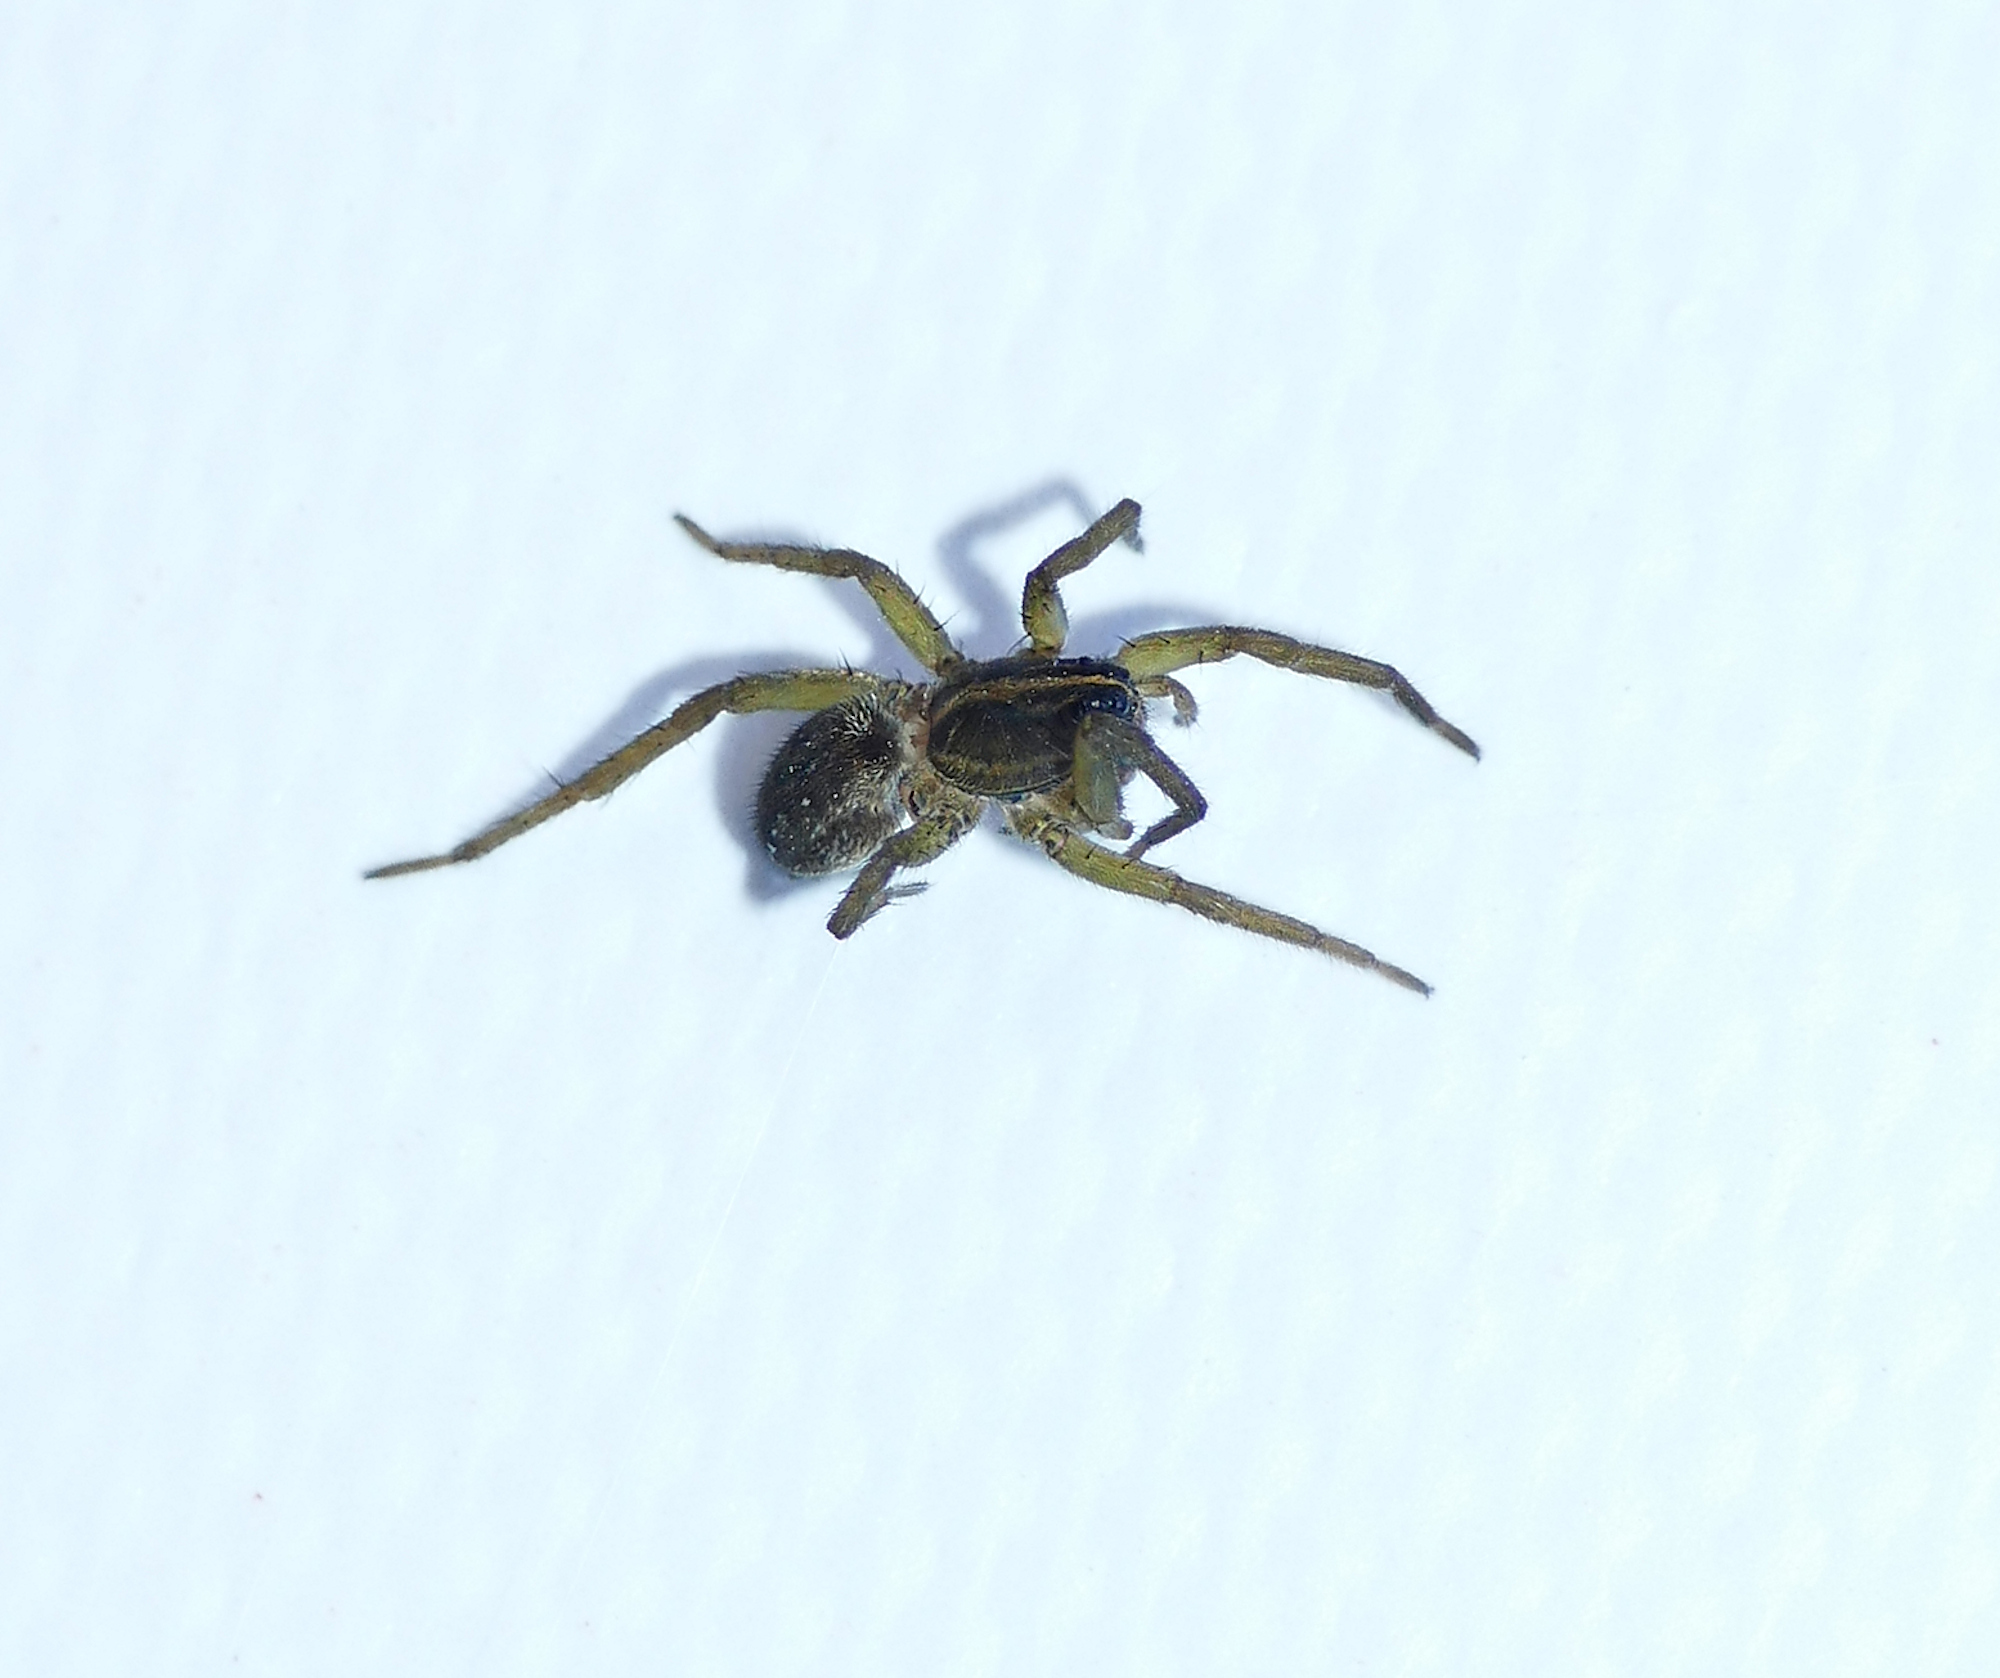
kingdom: Animalia
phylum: Arthropoda
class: Arachnida
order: Araneae
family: Lycosidae
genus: Tigrosa
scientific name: Tigrosa helluo
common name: Wetland giant wolf spider
